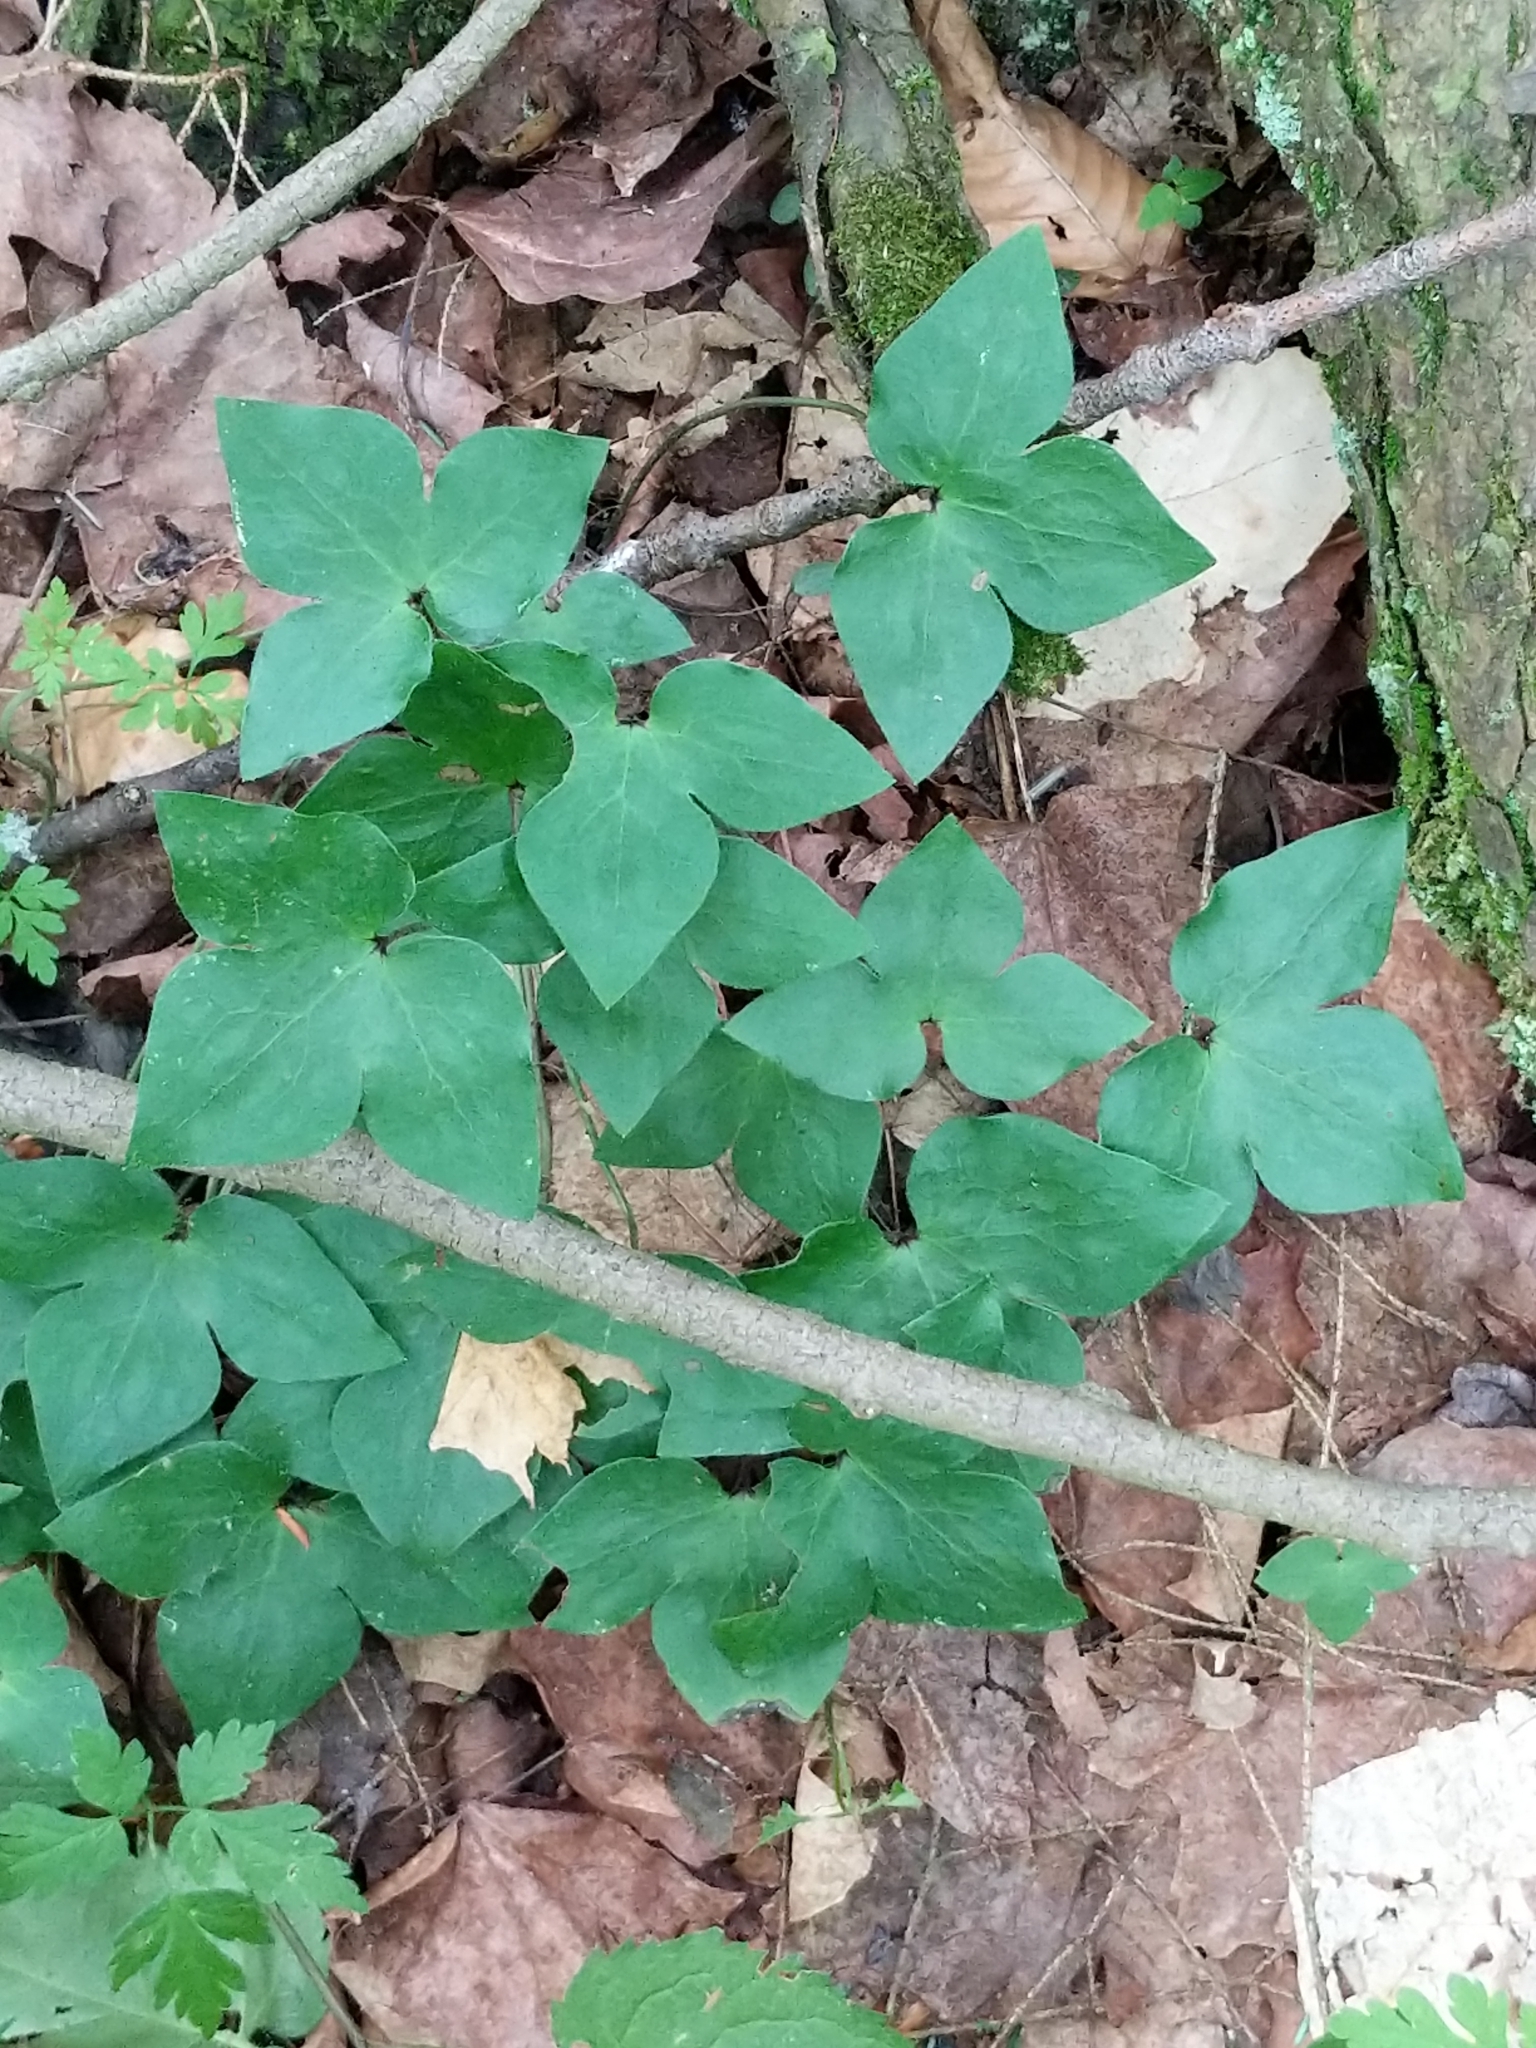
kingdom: Plantae
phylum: Tracheophyta
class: Magnoliopsida
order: Ranunculales
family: Ranunculaceae
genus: Hepatica
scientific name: Hepatica acutiloba
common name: Sharp-lobed hepatica
